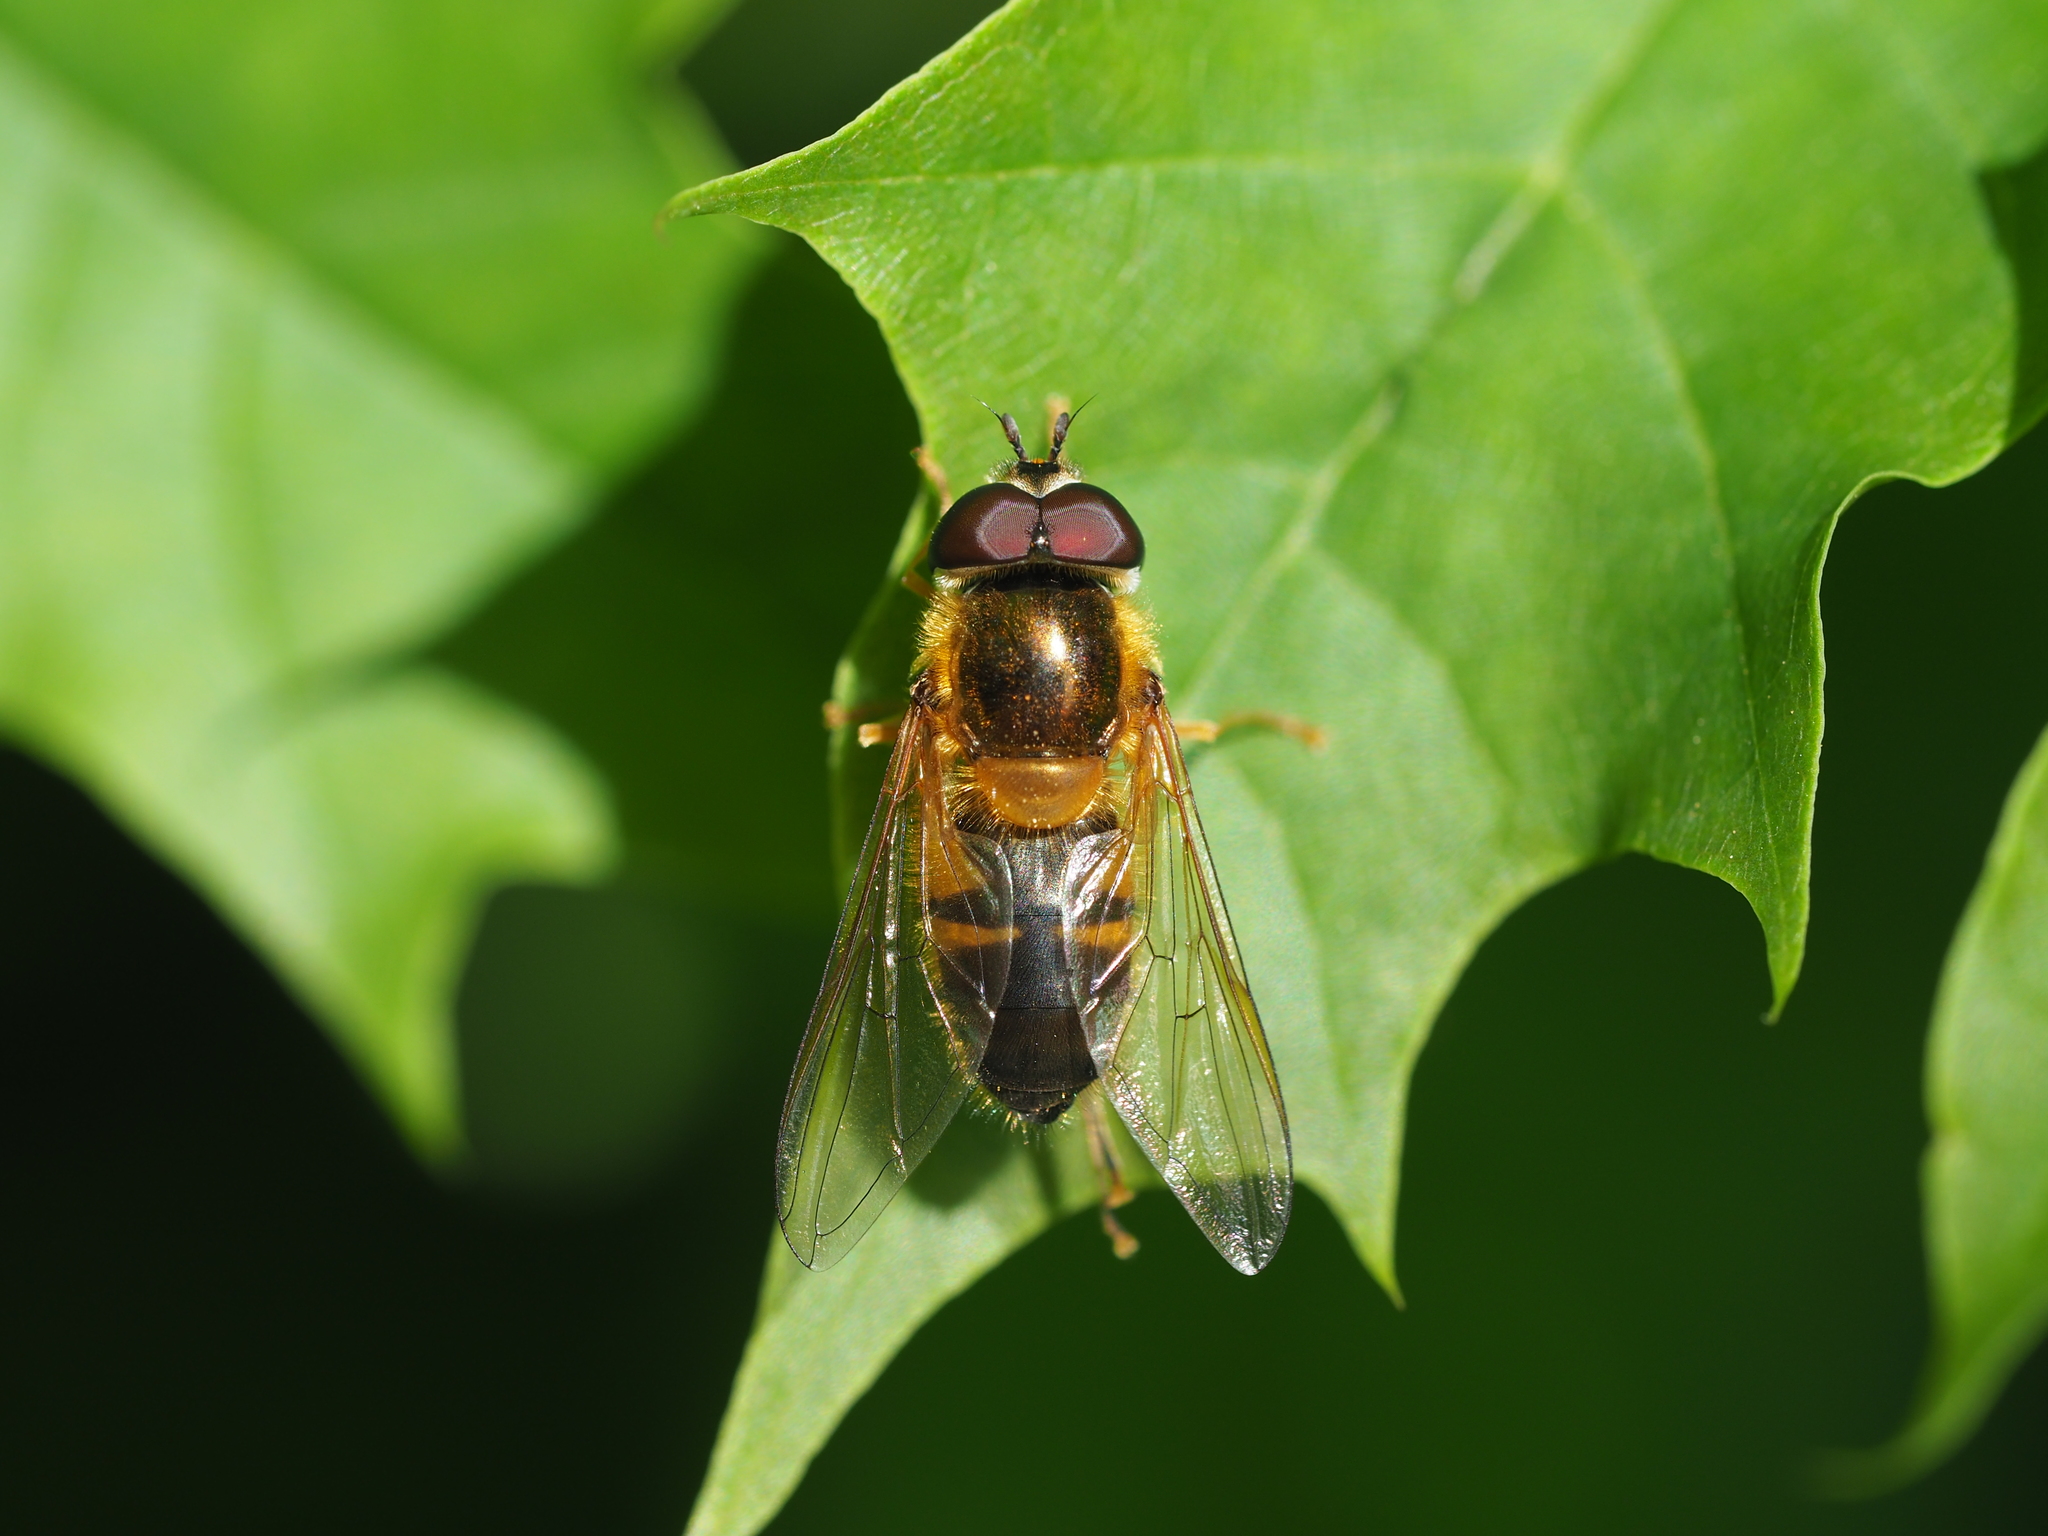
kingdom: Animalia
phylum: Arthropoda
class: Insecta
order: Diptera
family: Syrphidae
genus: Epistrophe
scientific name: Epistrophe eligans
